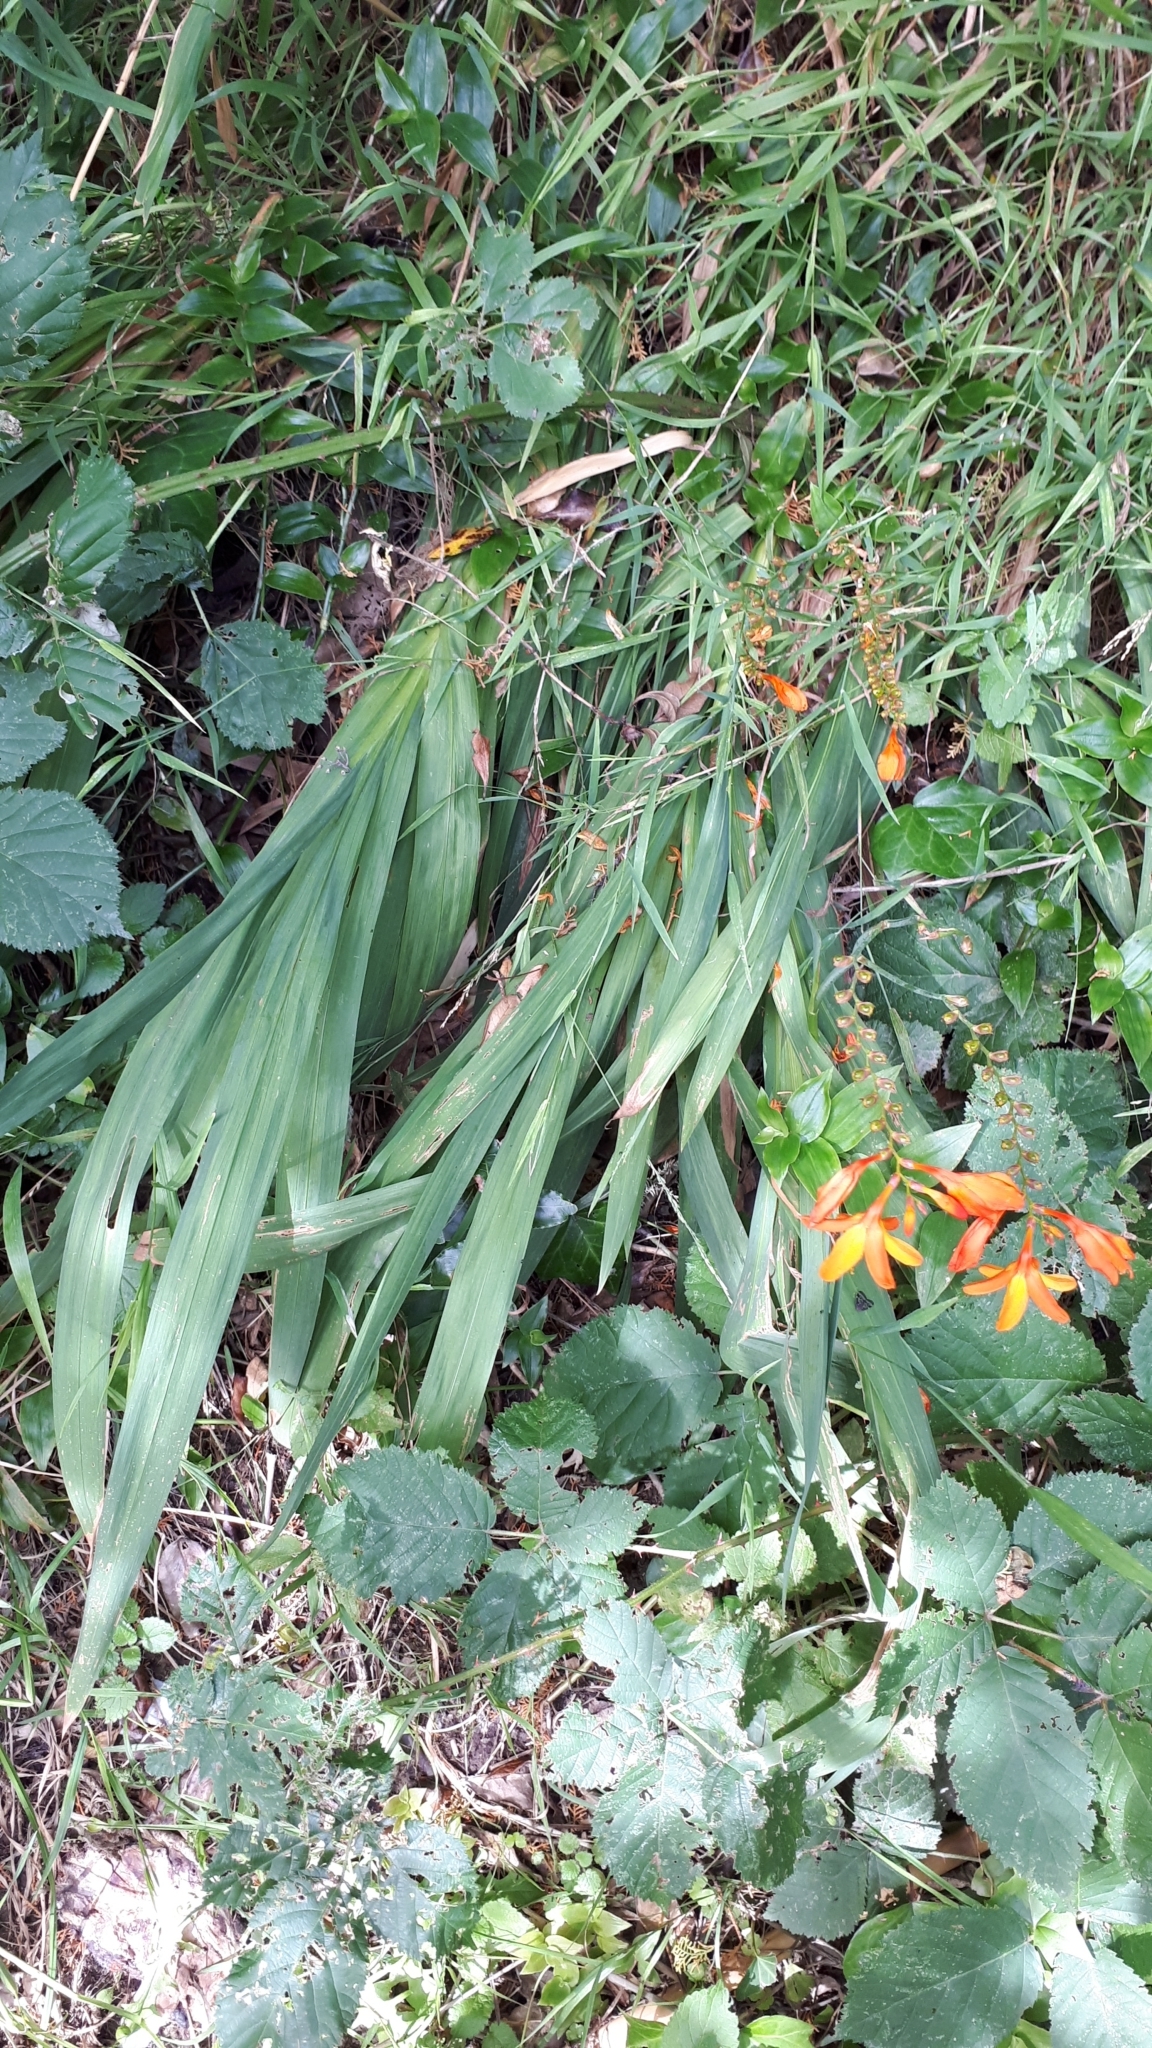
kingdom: Plantae
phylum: Tracheophyta
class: Liliopsida
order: Asparagales
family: Iridaceae
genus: Crocosmia
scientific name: Crocosmia crocosmiiflora
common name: Montbretia
